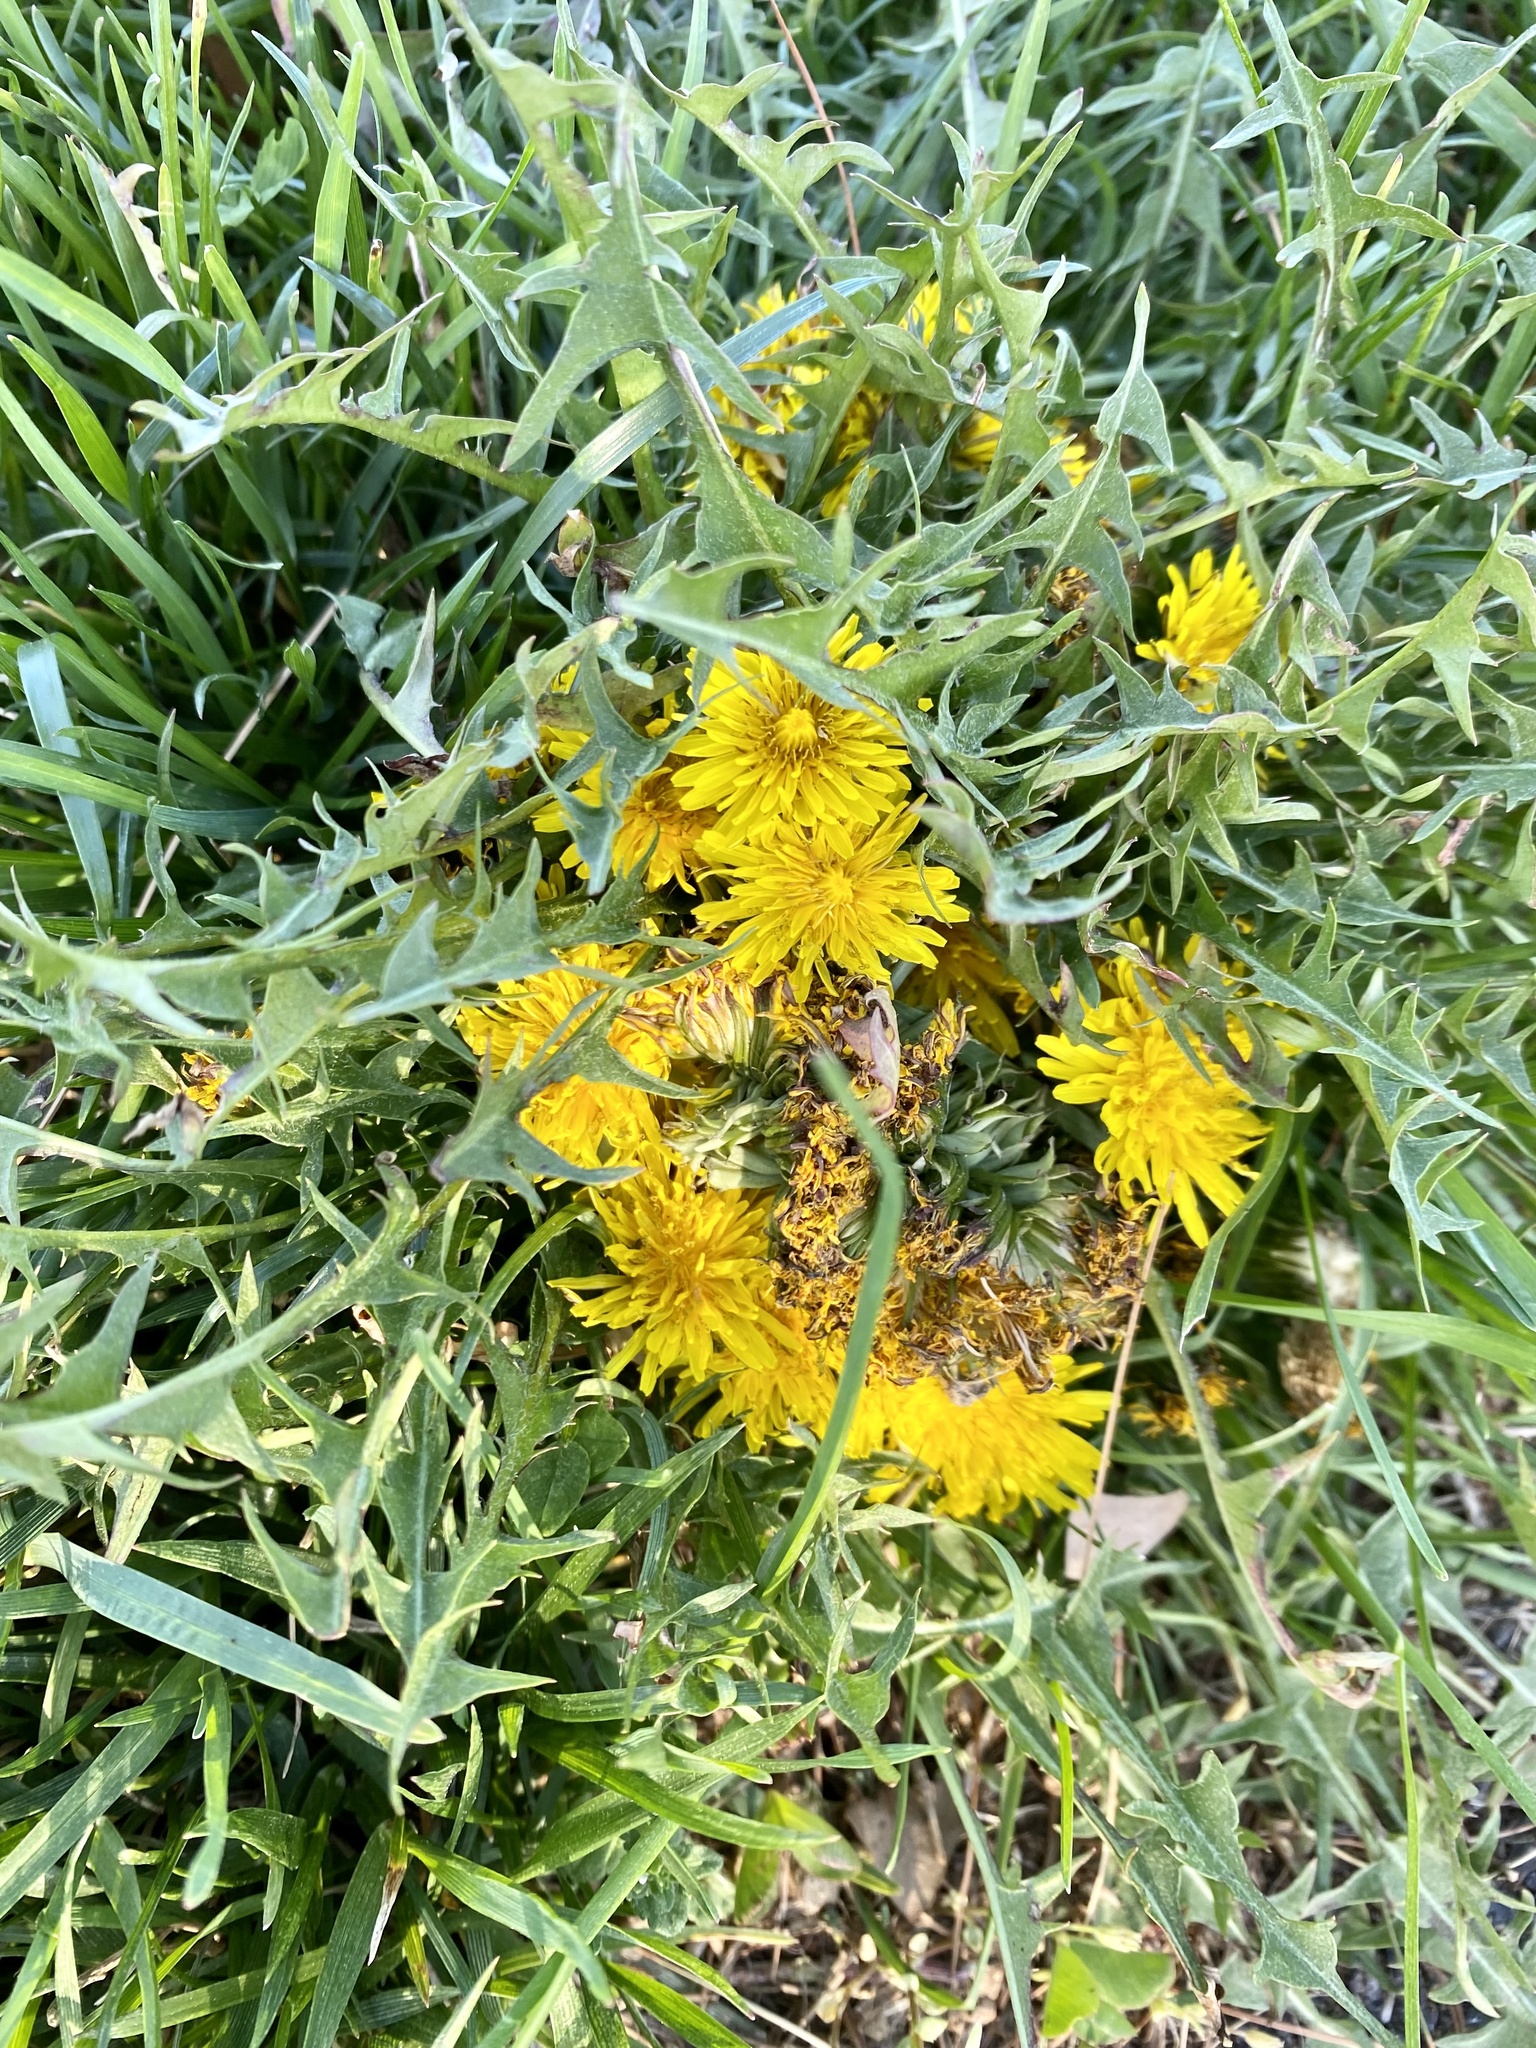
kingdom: Plantae
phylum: Tracheophyta
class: Magnoliopsida
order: Asterales
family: Asteraceae
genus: Taraxacum
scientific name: Taraxacum officinale
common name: Common dandelion
